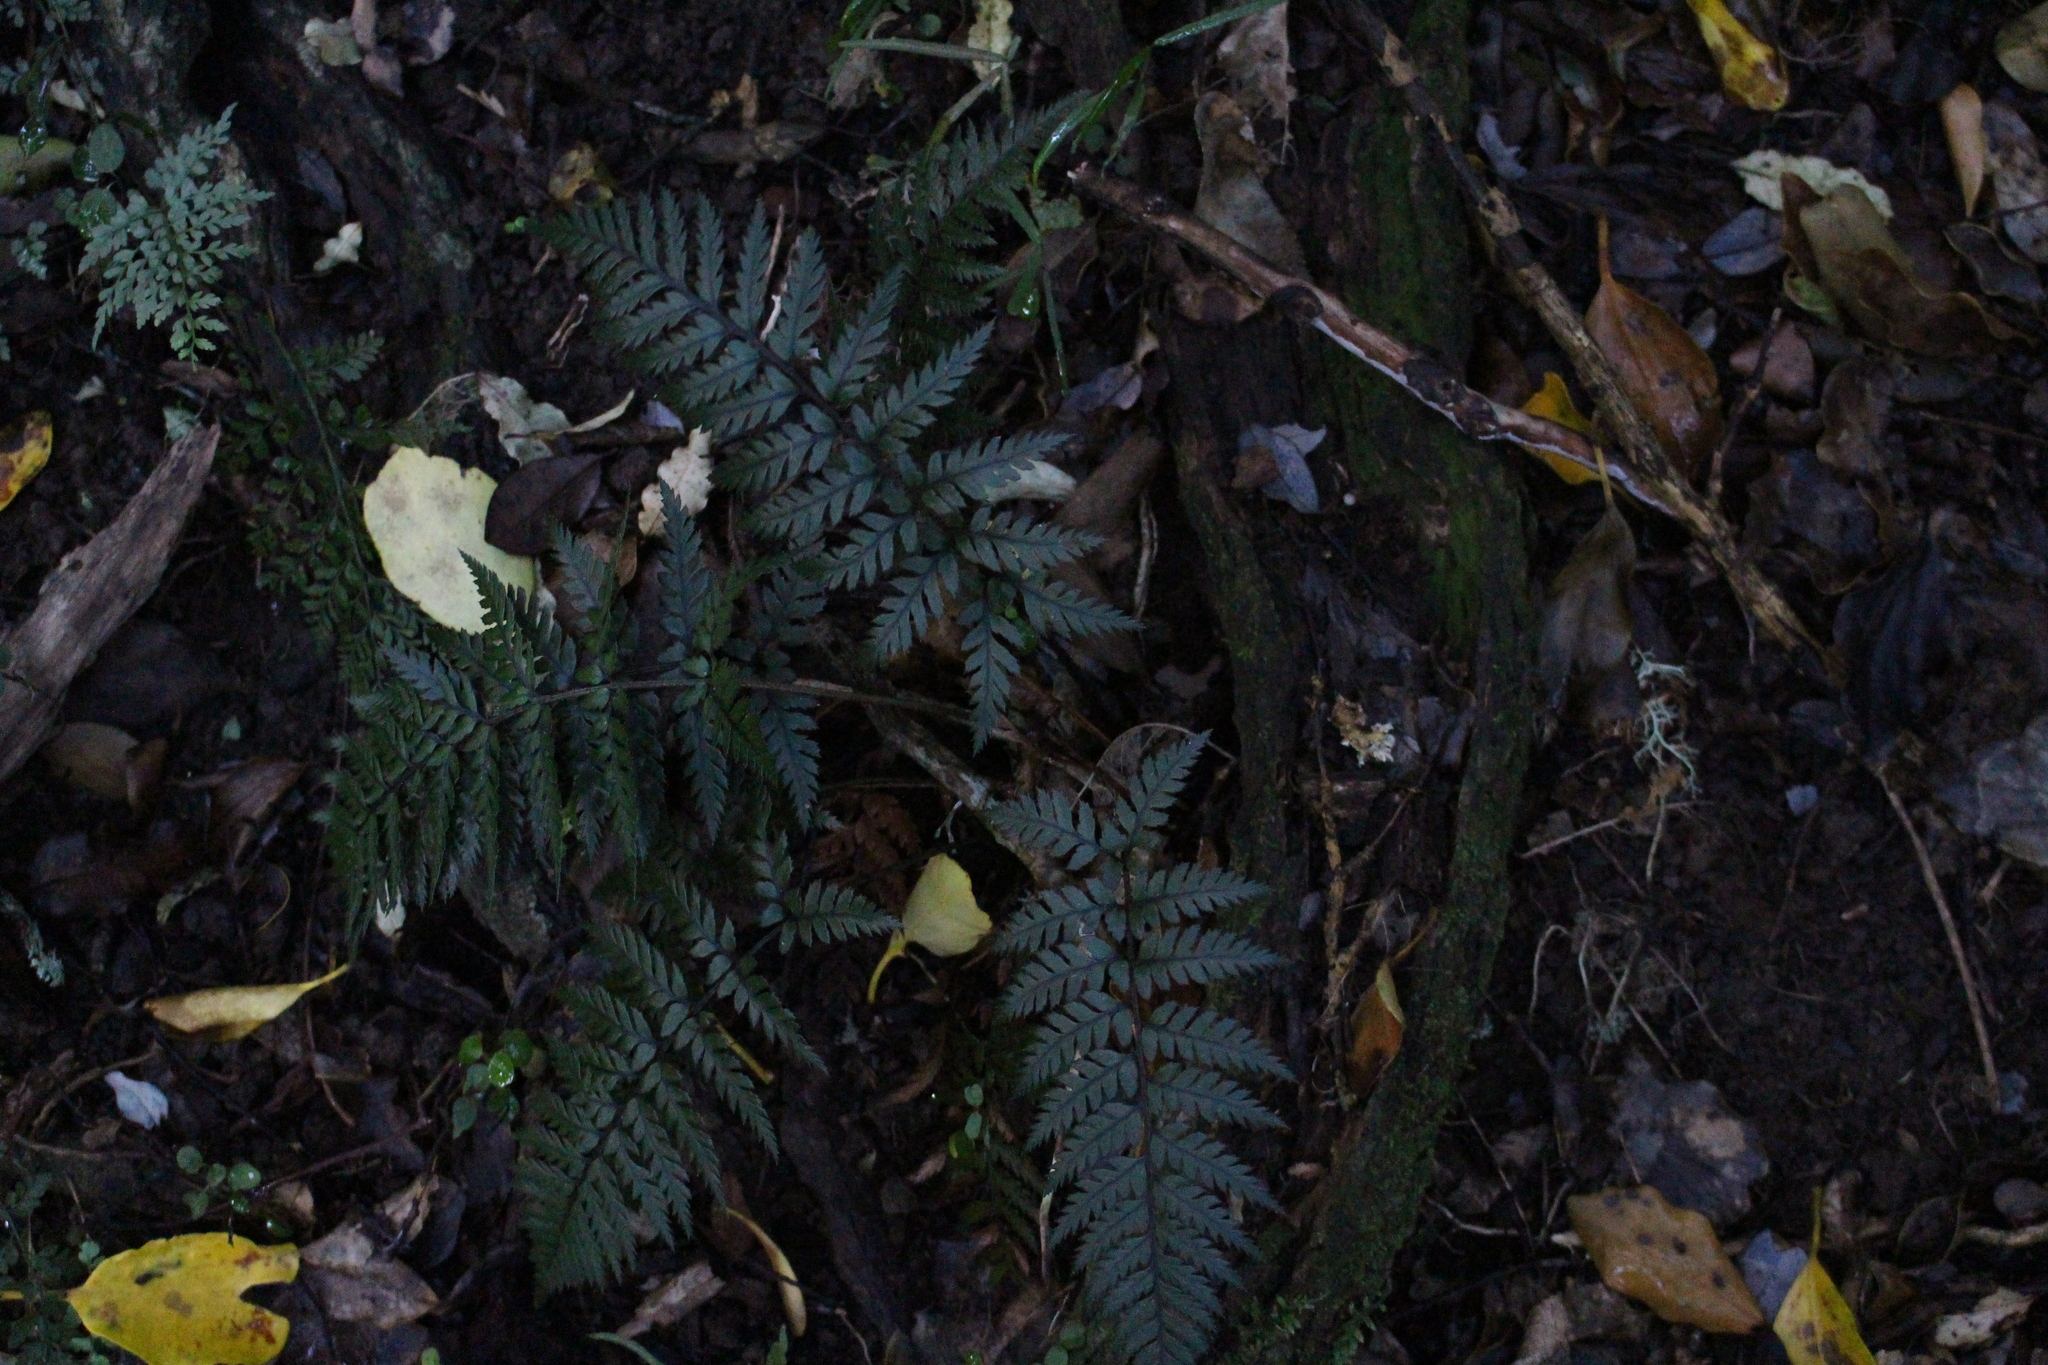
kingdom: Plantae
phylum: Tracheophyta
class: Polypodiopsida
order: Polypodiales
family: Dryopteridaceae
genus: Polystichum
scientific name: Polystichum neozelandicum
